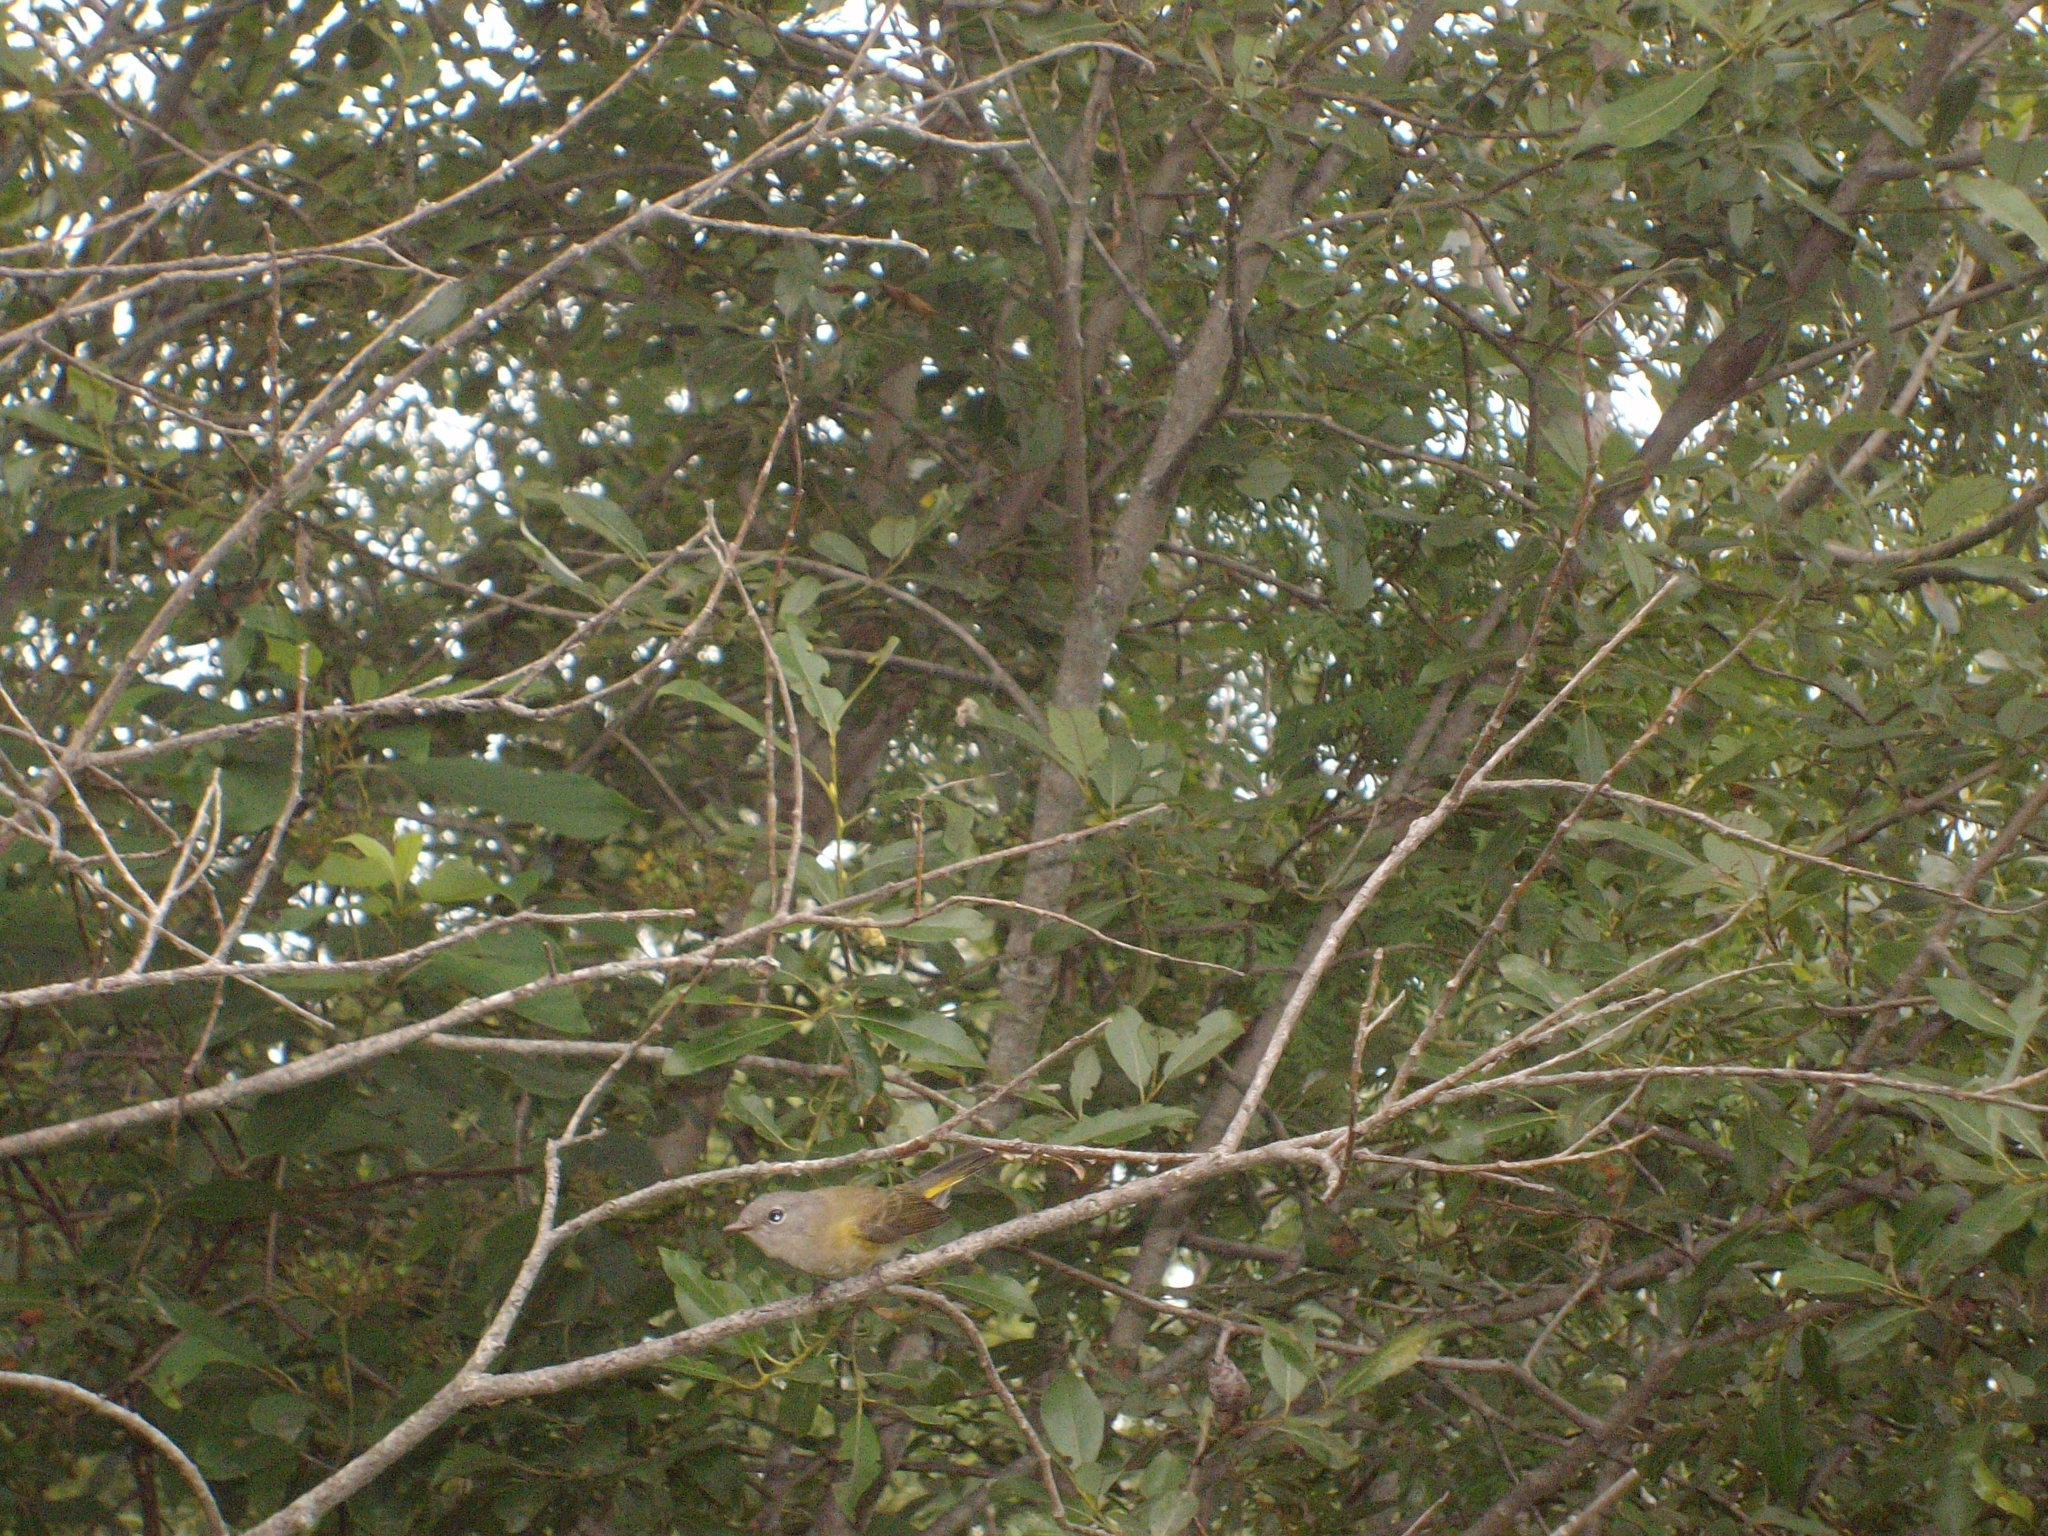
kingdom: Animalia
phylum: Chordata
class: Aves
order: Passeriformes
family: Parulidae
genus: Setophaga
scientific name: Setophaga ruticilla
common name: American redstart
